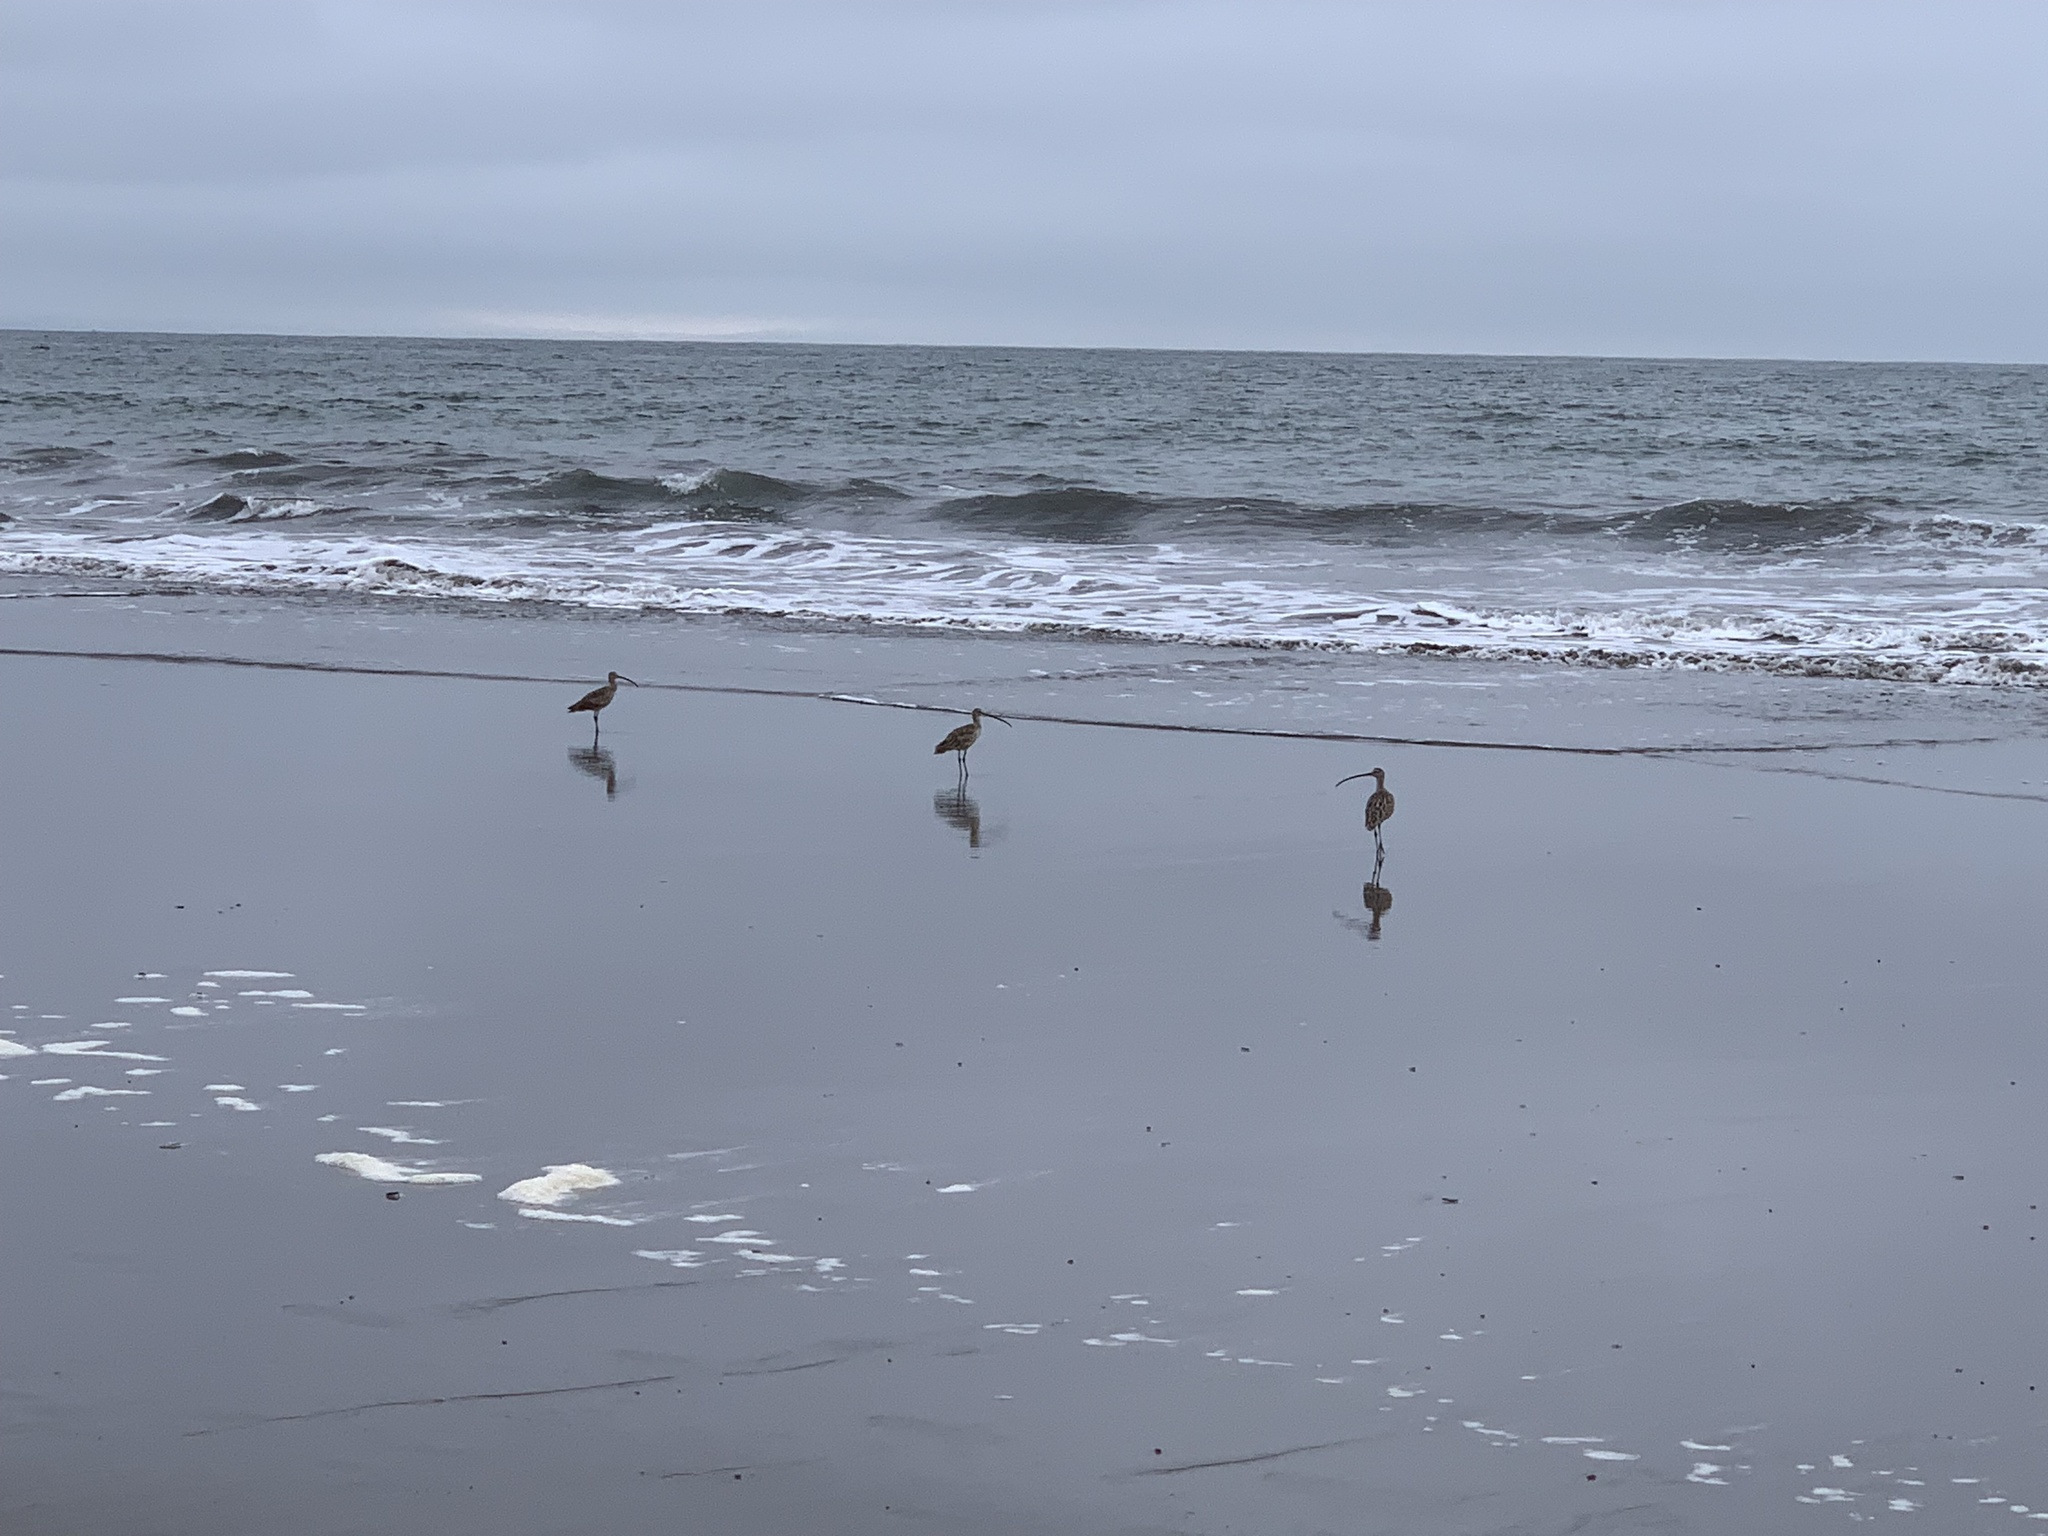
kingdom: Animalia
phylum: Chordata
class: Aves
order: Charadriiformes
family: Scolopacidae
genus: Numenius
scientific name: Numenius americanus
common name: Long-billed curlew
